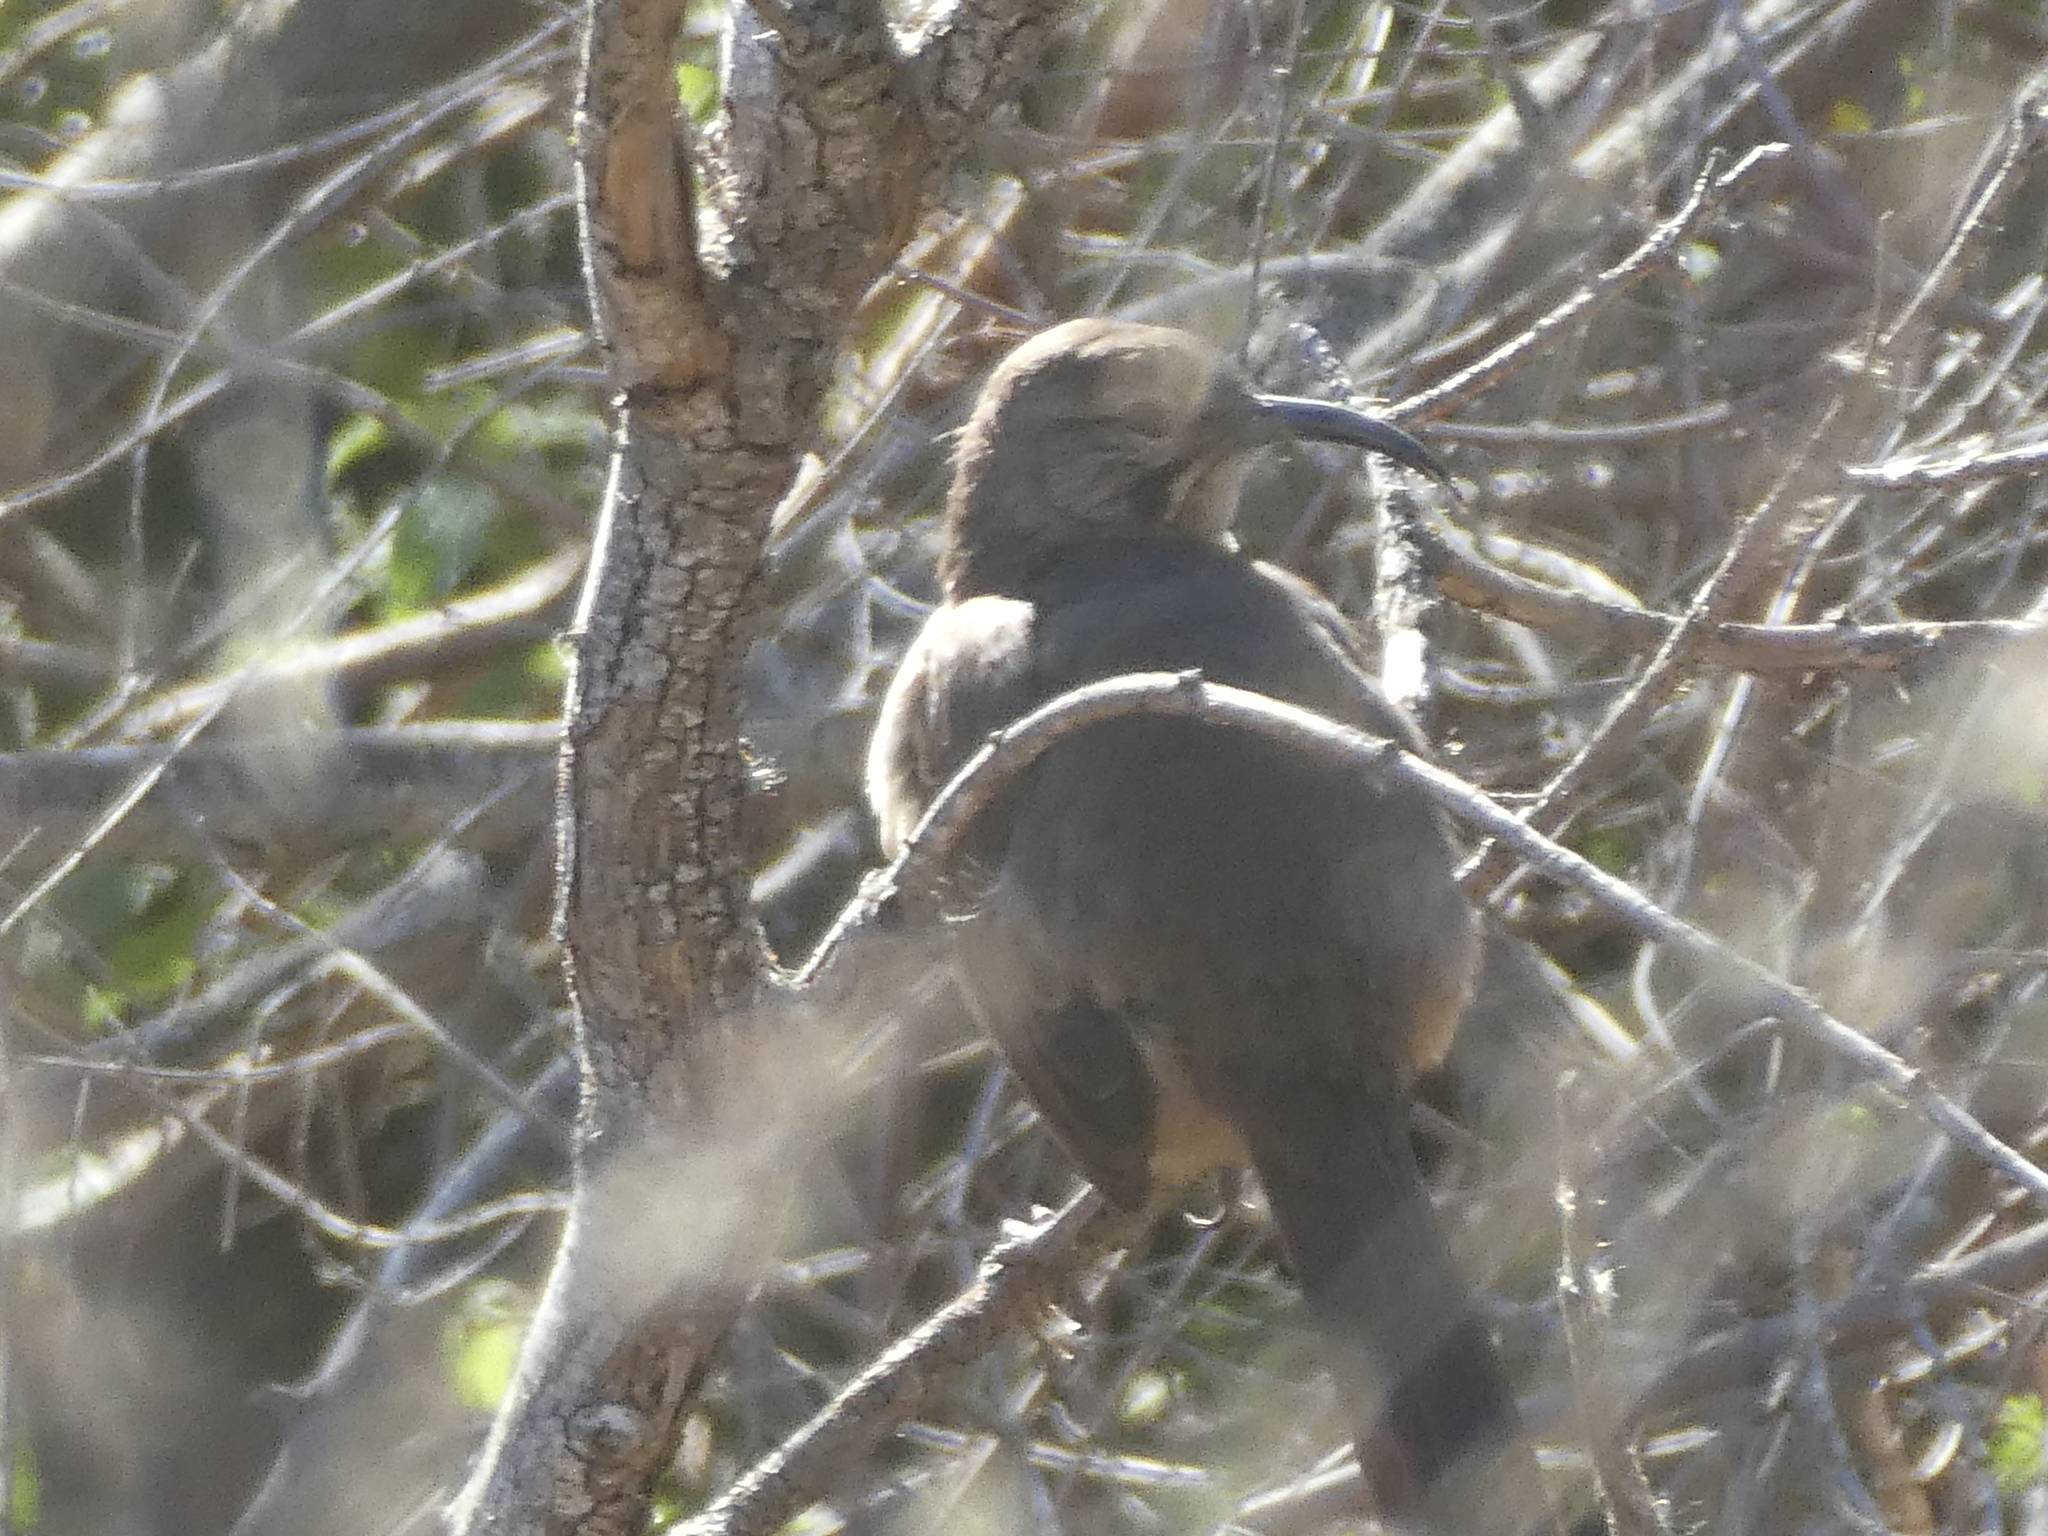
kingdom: Animalia
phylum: Chordata
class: Aves
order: Passeriformes
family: Mimidae
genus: Toxostoma
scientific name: Toxostoma redivivum
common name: California thrasher
